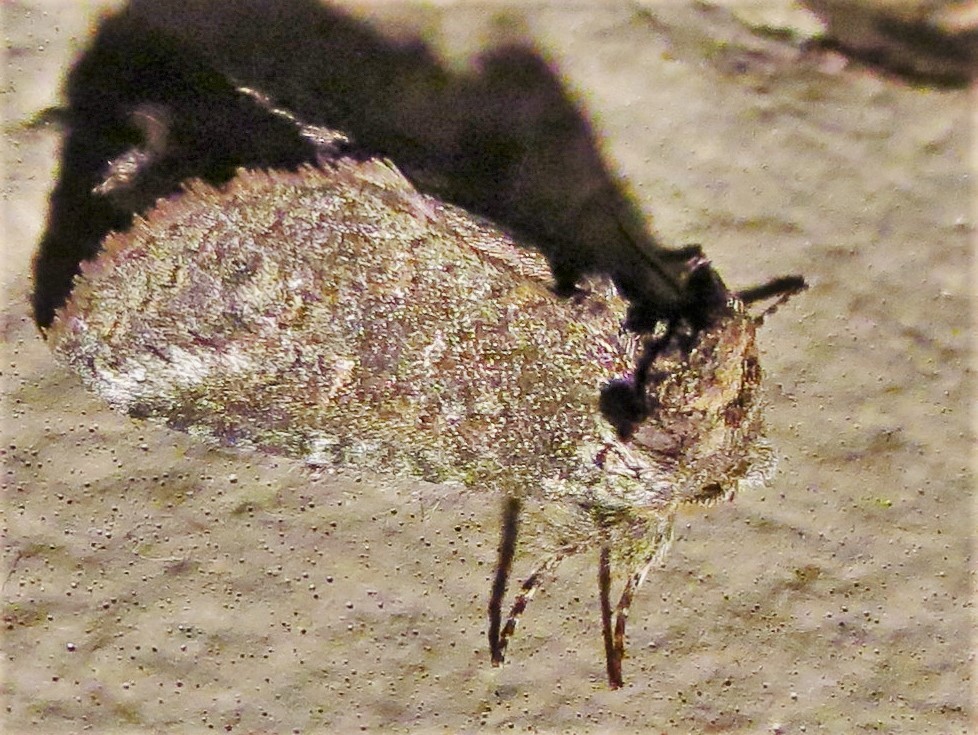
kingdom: Animalia
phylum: Arthropoda
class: Insecta
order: Lepidoptera
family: Notodontidae
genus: Rifargia
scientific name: Rifargia
